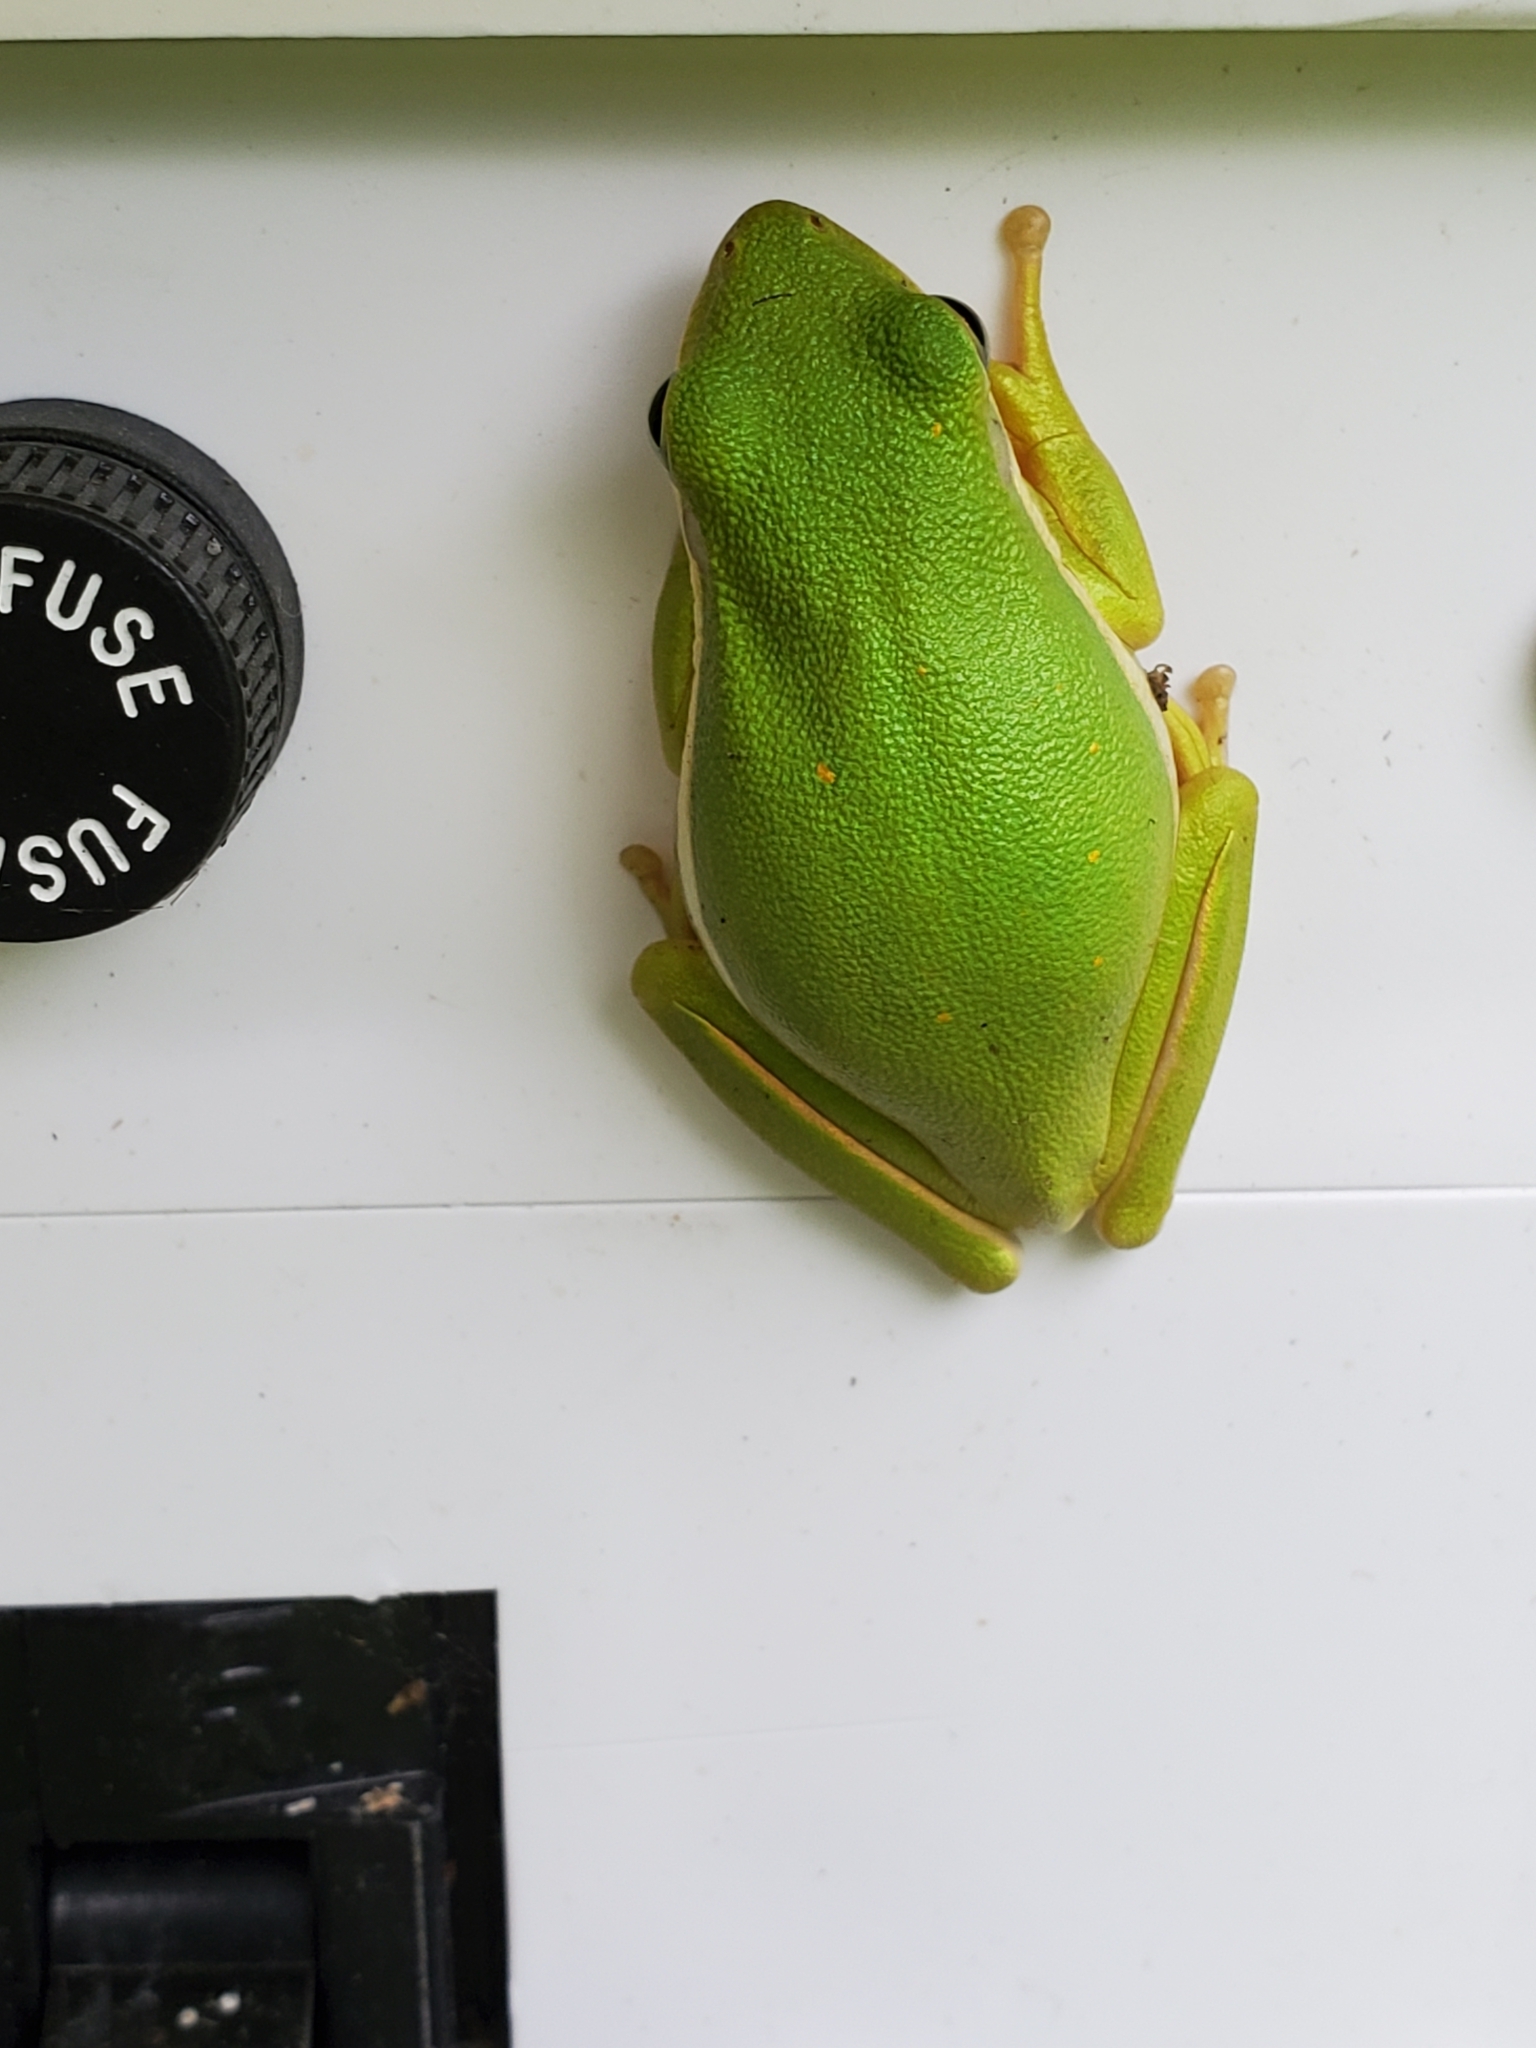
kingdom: Animalia
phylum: Chordata
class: Amphibia
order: Anura
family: Hylidae
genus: Dryophytes
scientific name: Dryophytes cinereus
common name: Green treefrog
